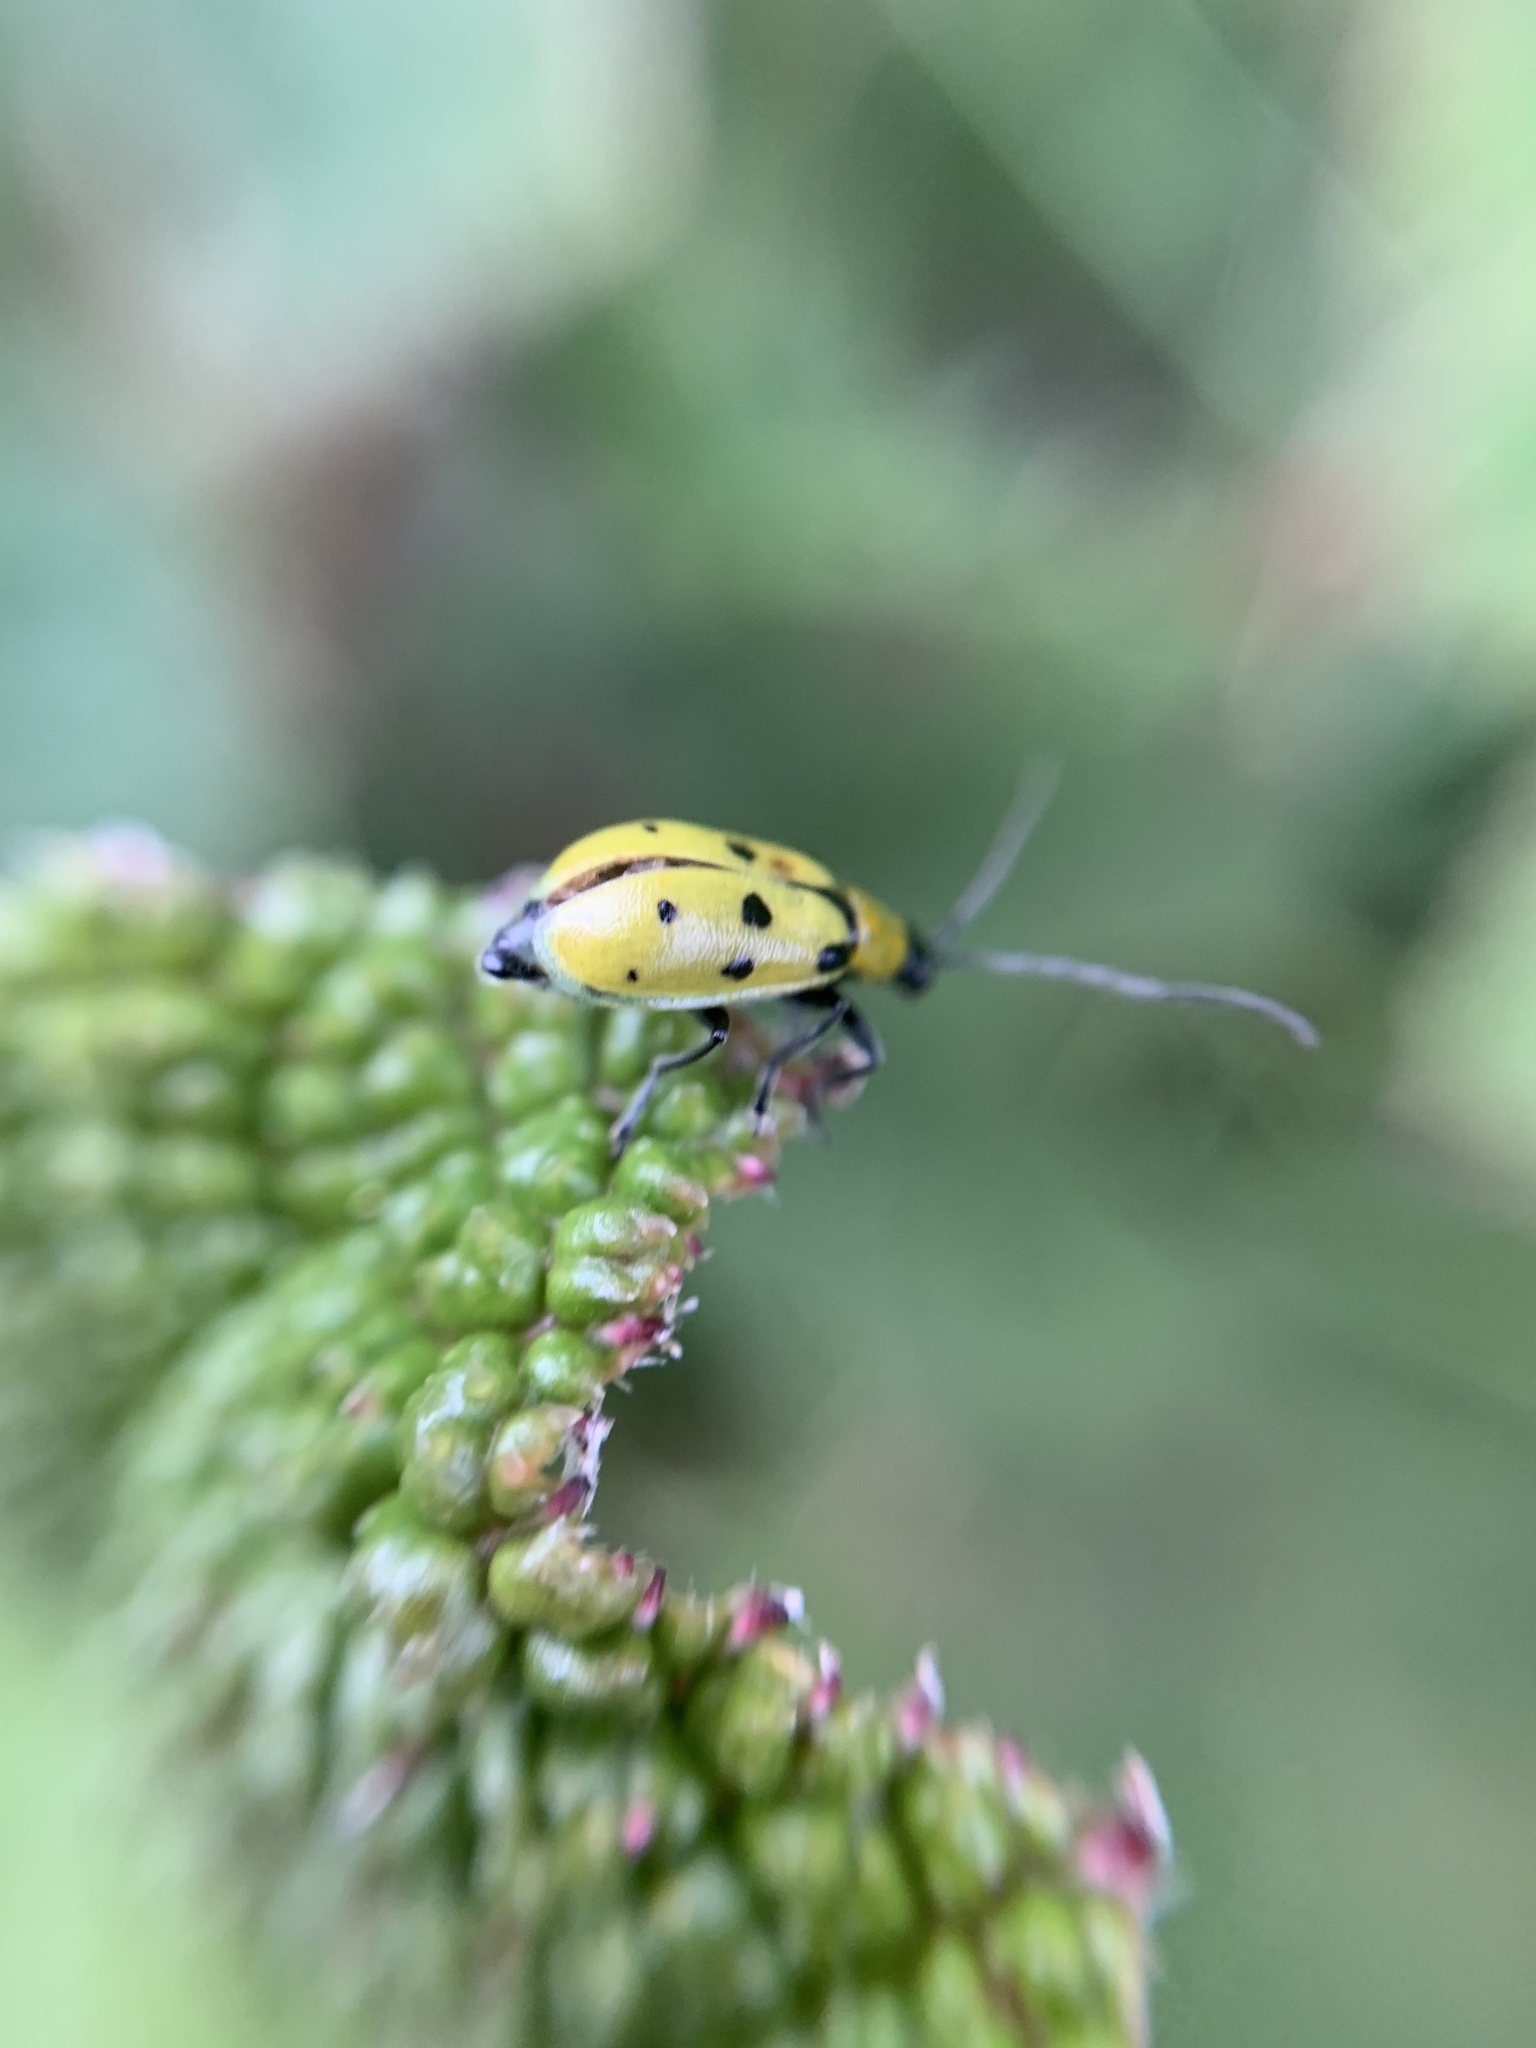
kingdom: Animalia
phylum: Arthropoda
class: Insecta
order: Coleoptera
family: Chrysomelidae
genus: Diabrotica
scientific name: Diabrotica decempunctata
